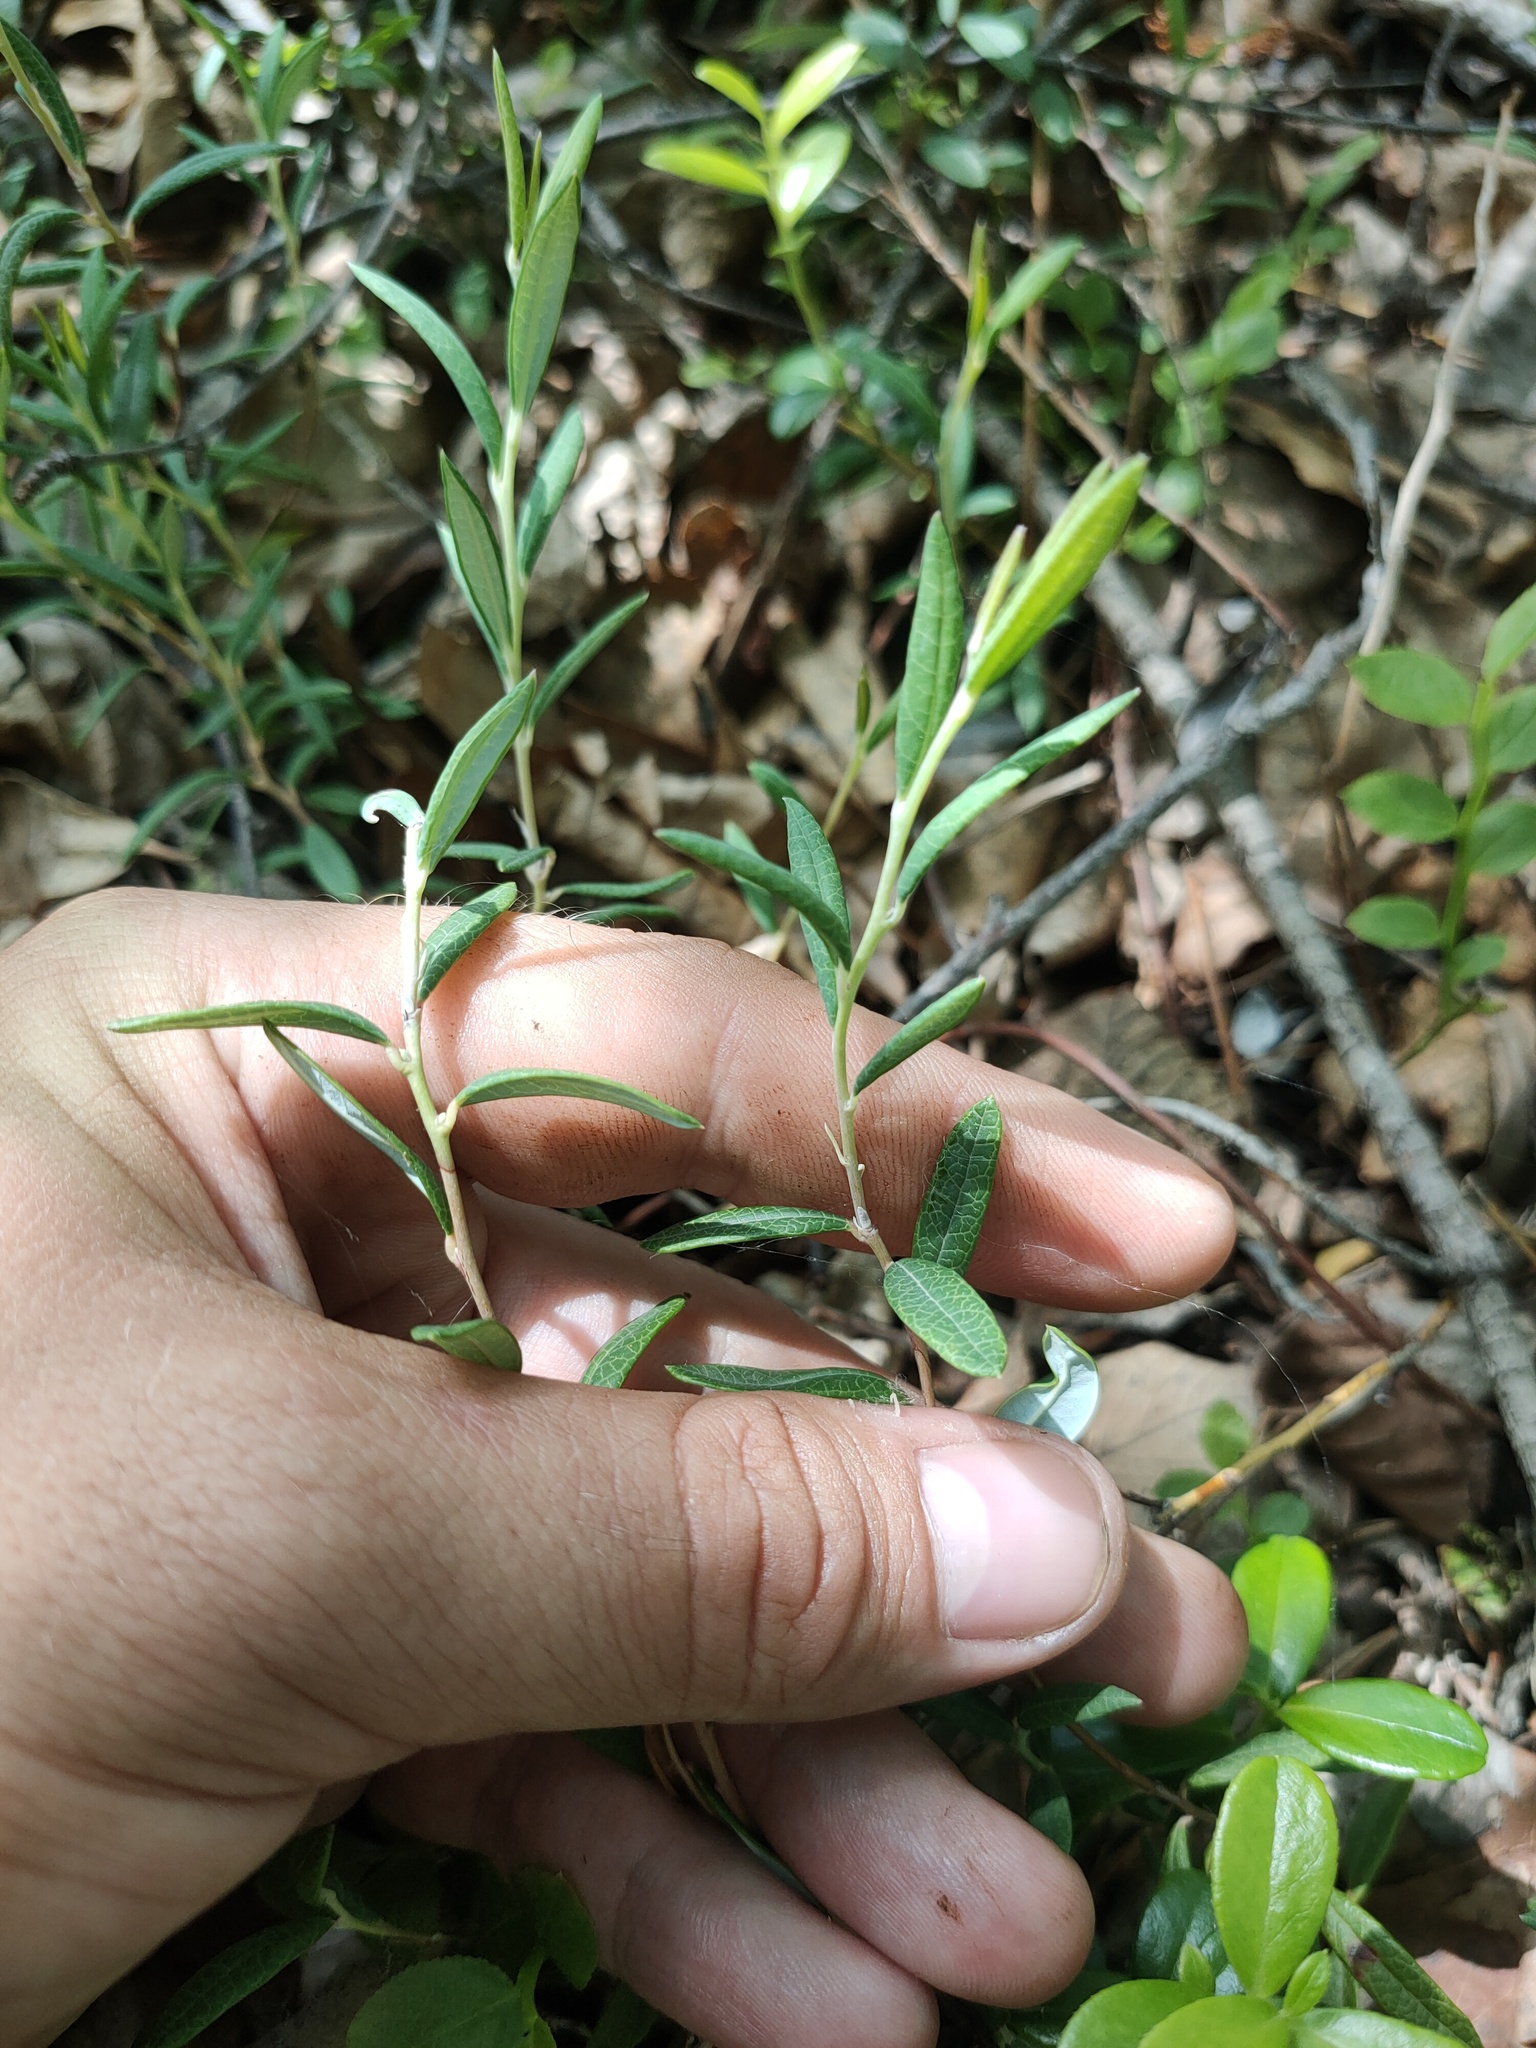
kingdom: Plantae
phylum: Tracheophyta
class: Magnoliopsida
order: Ericales
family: Ericaceae
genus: Andromeda
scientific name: Andromeda polifolia
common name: Bog-rosemary
